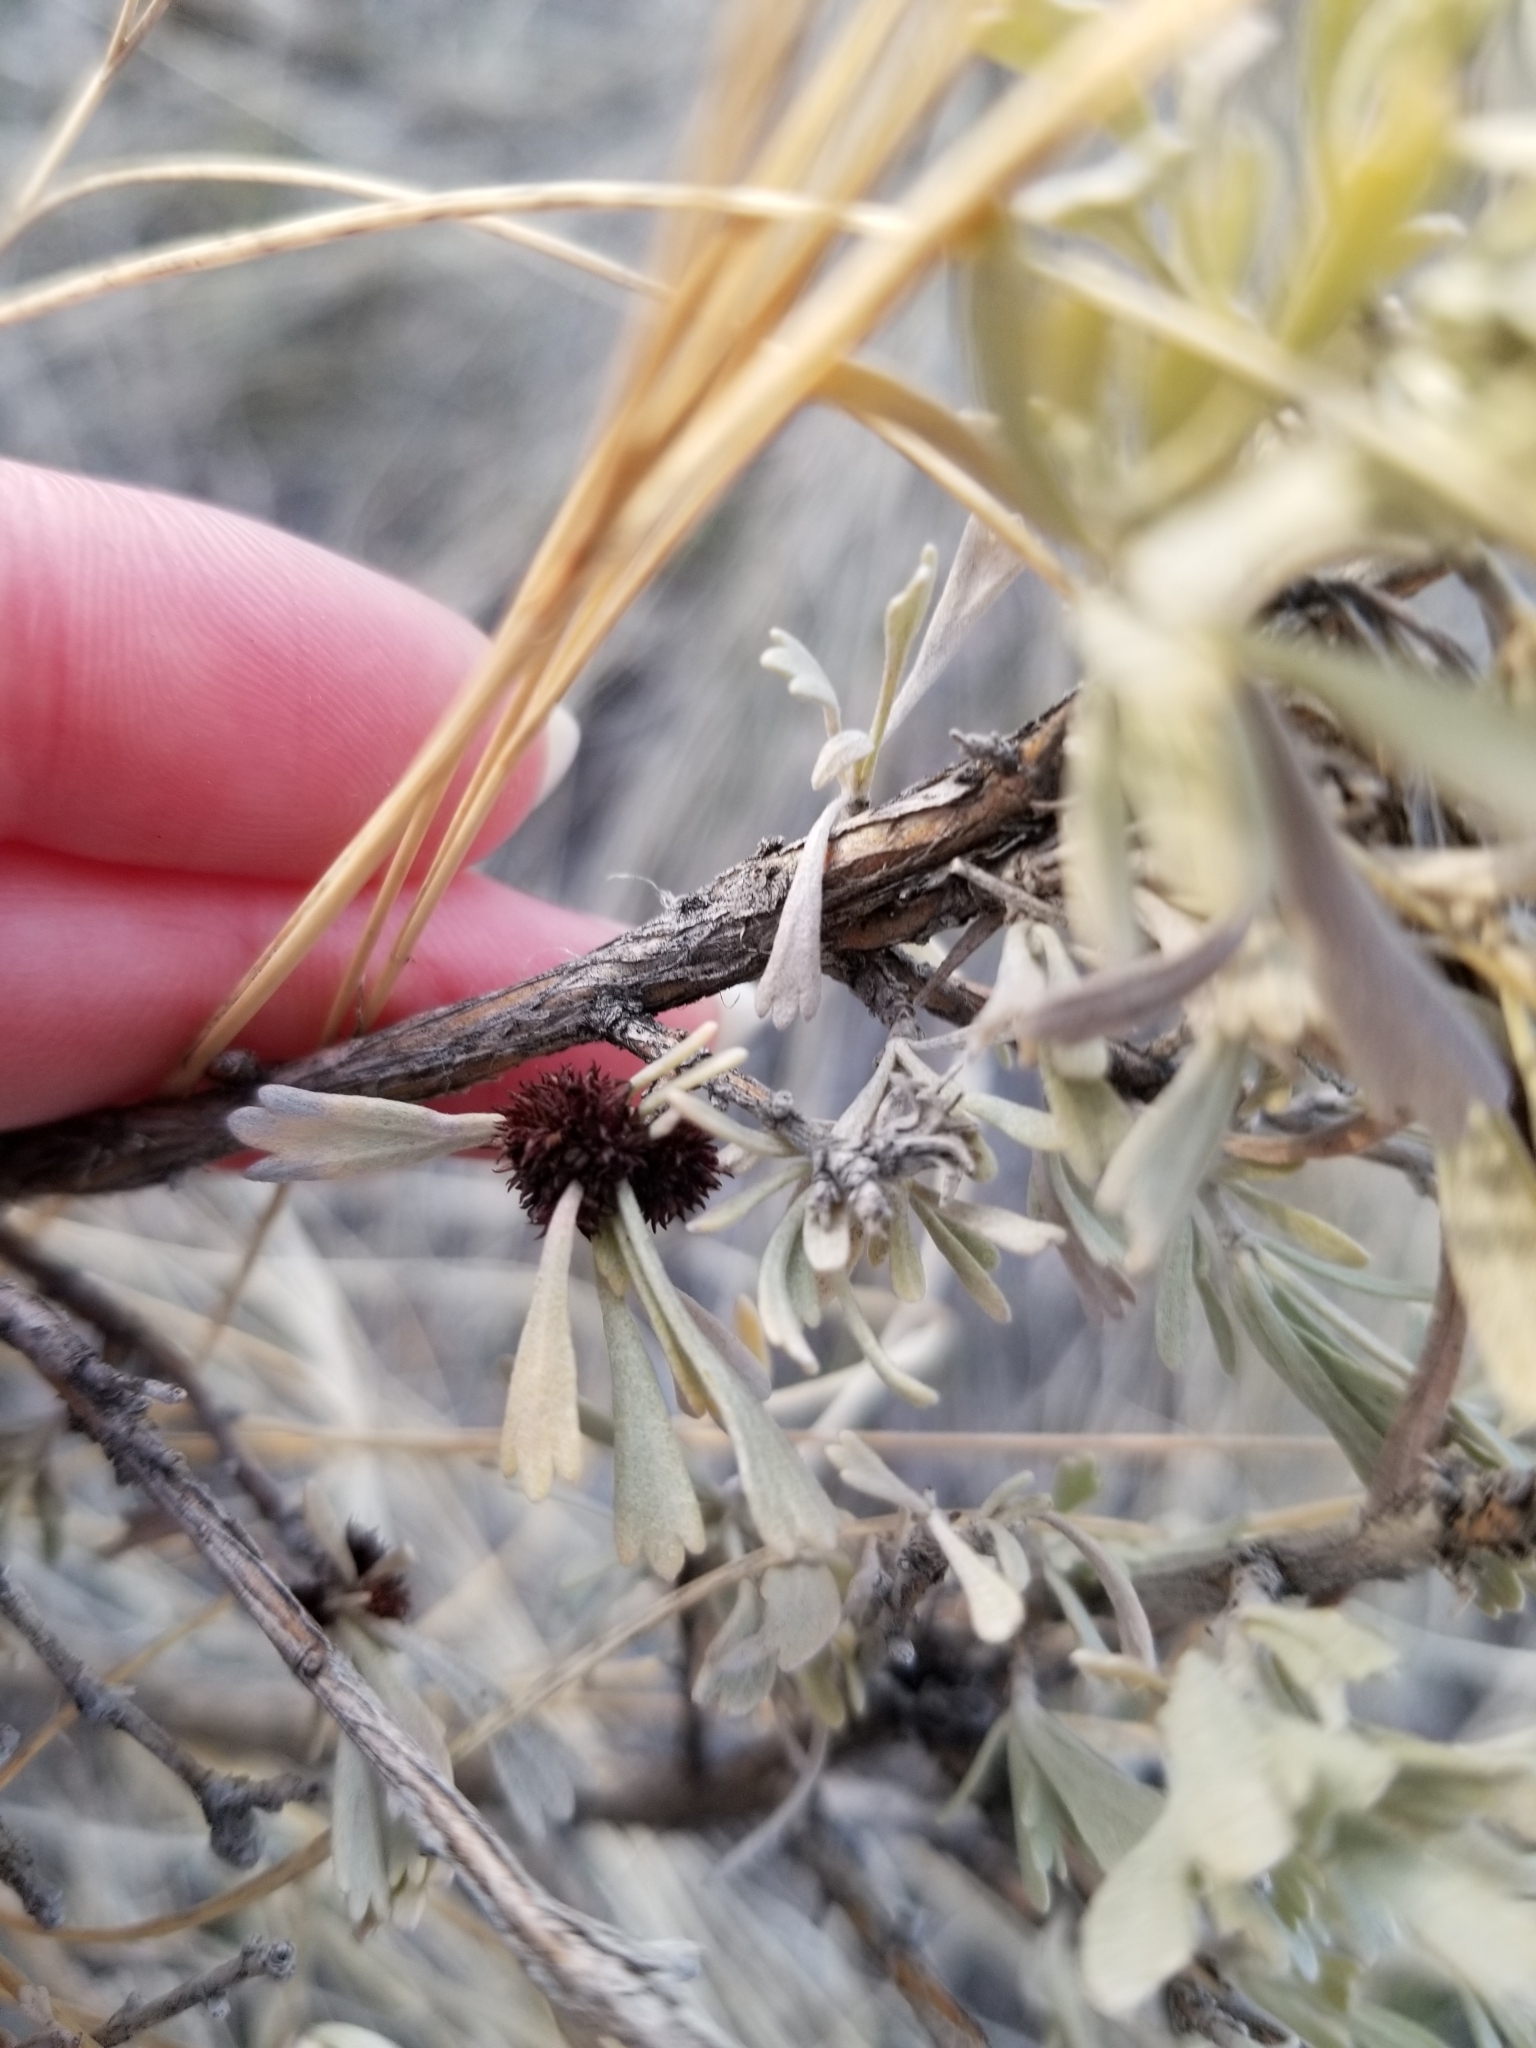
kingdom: Animalia
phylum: Arthropoda
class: Insecta
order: Diptera
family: Cecidomyiidae
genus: Rhopalomyia
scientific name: Rhopalomyia medusa
